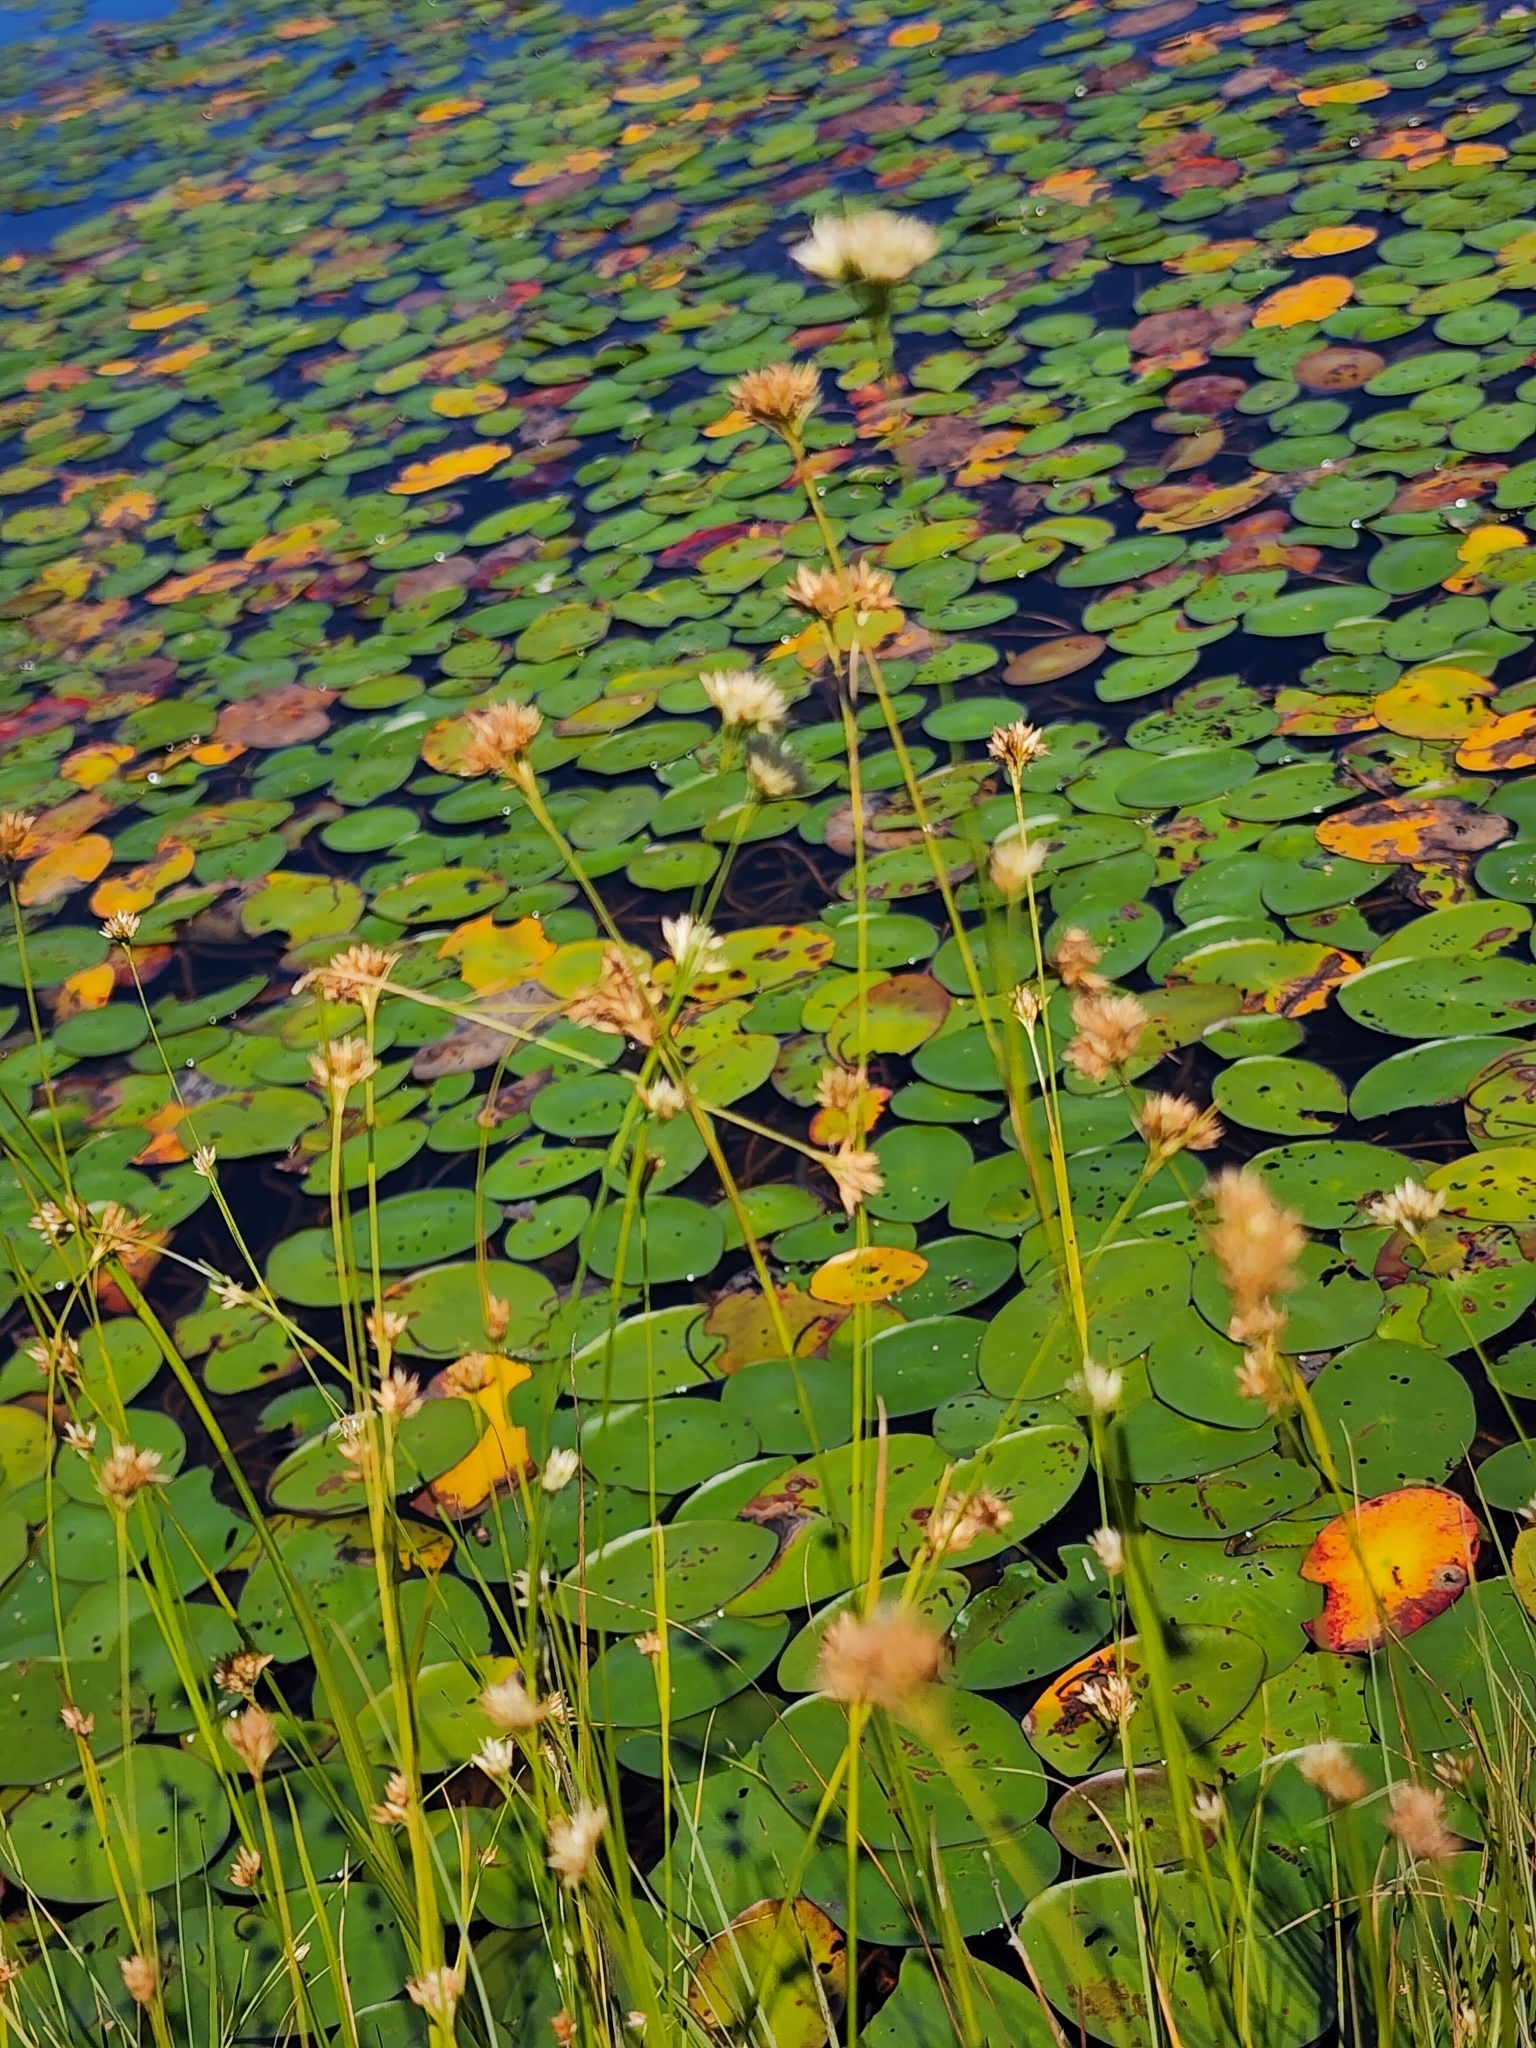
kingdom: Plantae
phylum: Tracheophyta
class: Liliopsida
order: Poales
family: Cyperaceae
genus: Rhynchospora
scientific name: Rhynchospora alba
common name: White beak-sedge
